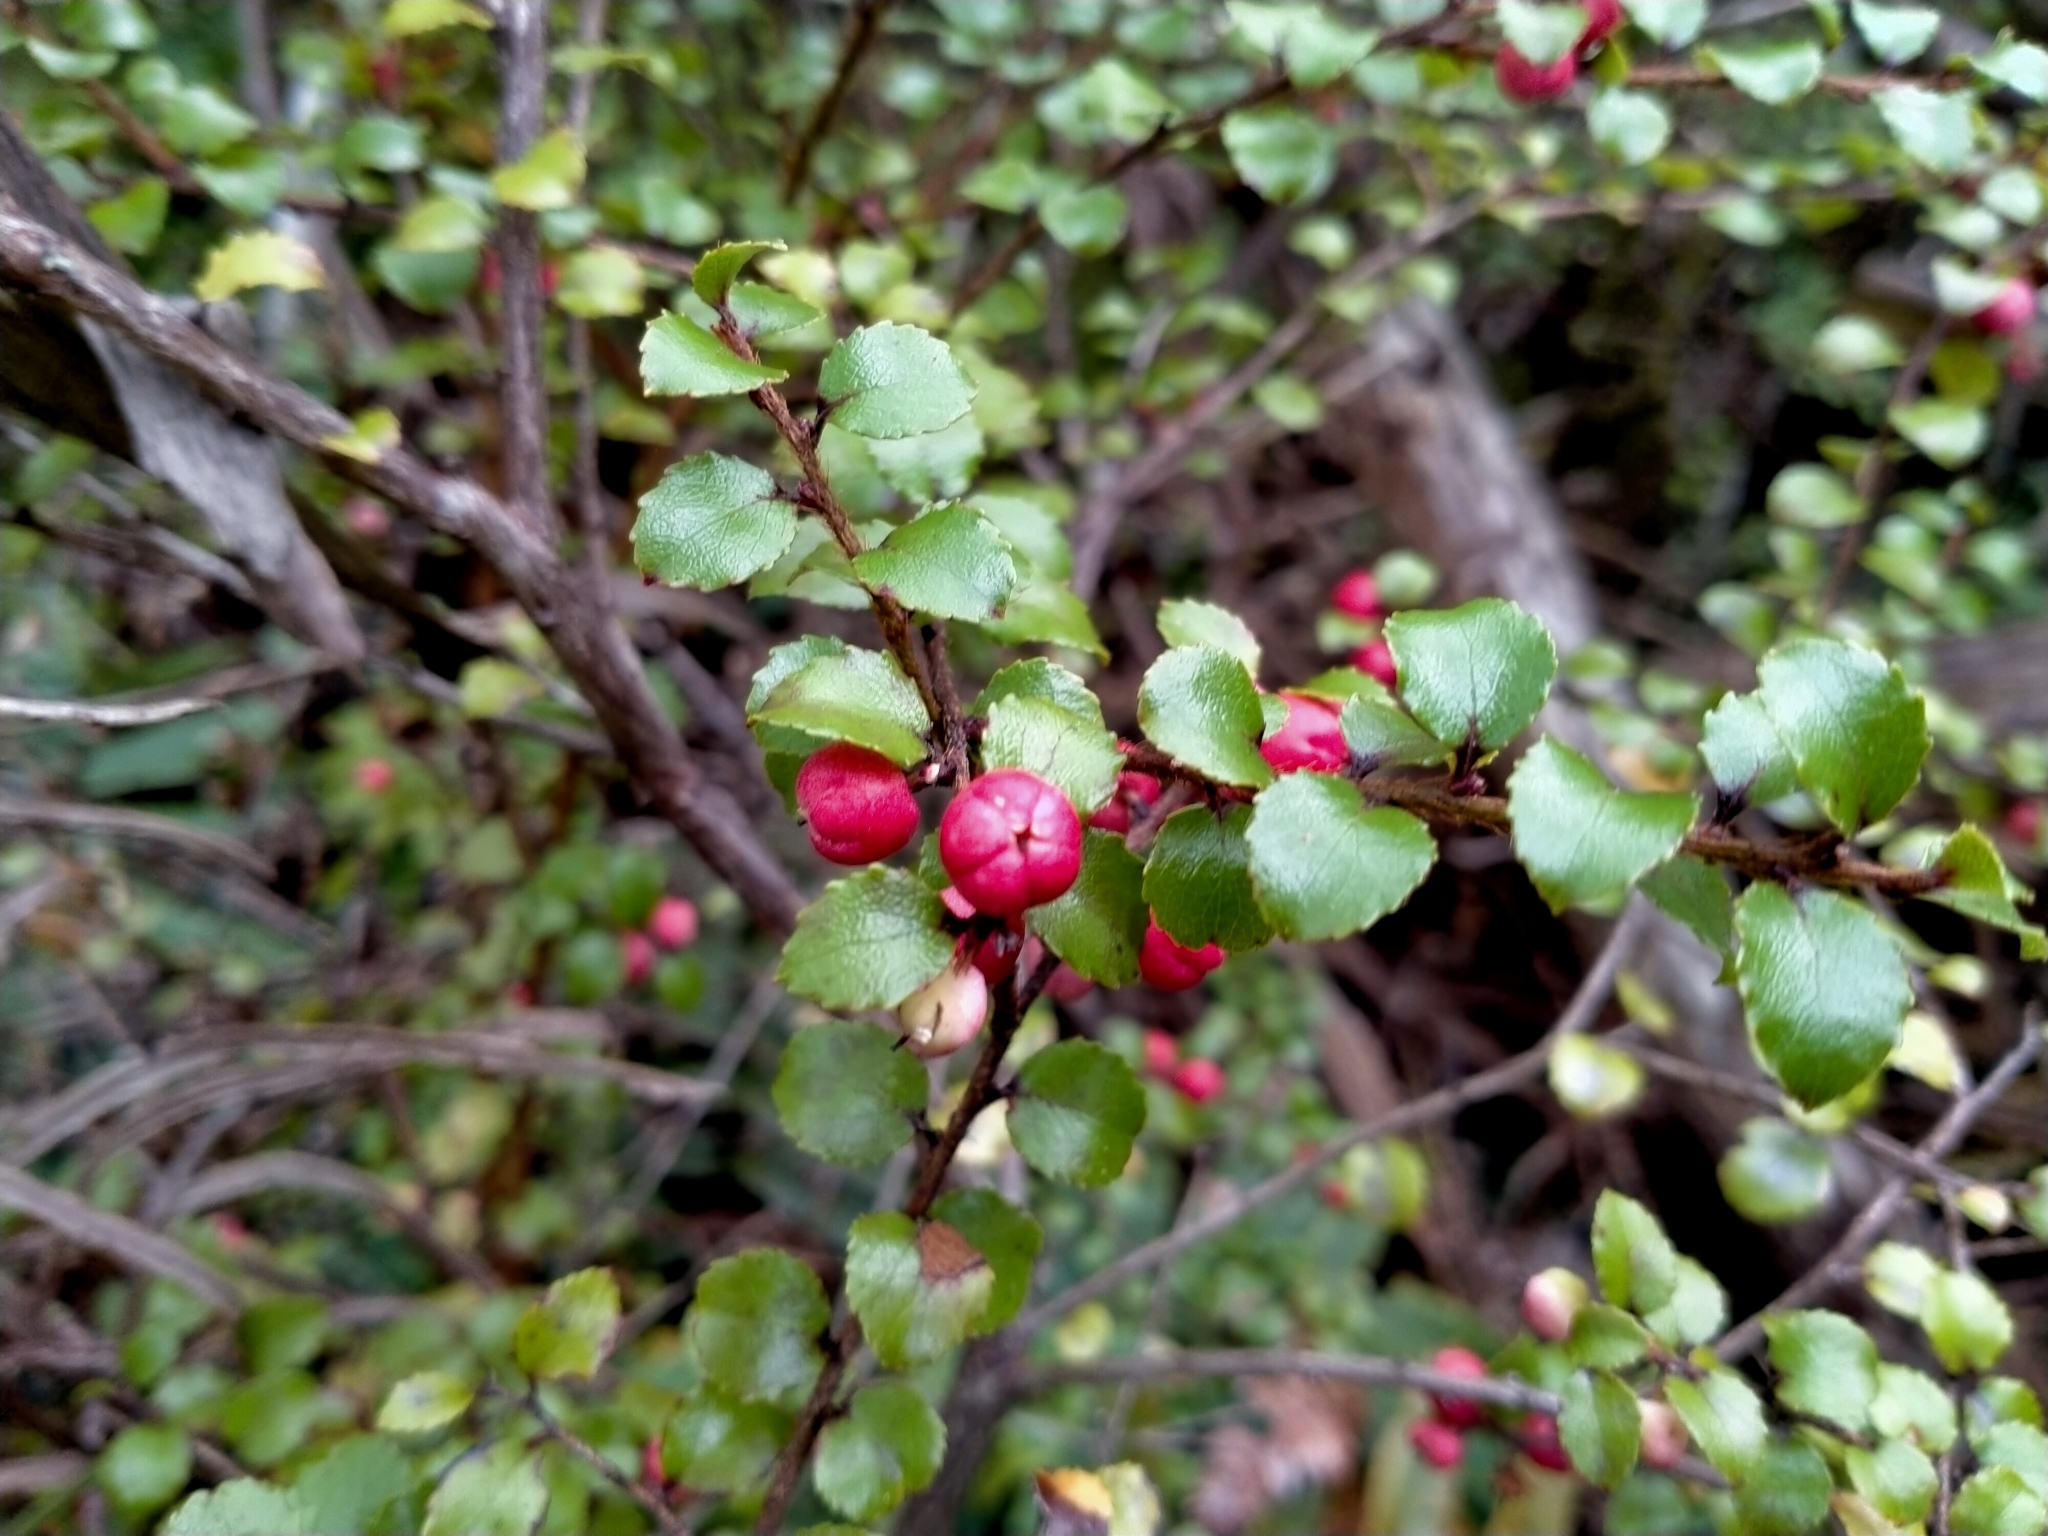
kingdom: Plantae
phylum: Tracheophyta
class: Magnoliopsida
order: Ericales
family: Ericaceae
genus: Gaultheria
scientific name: Gaultheria antipoda
